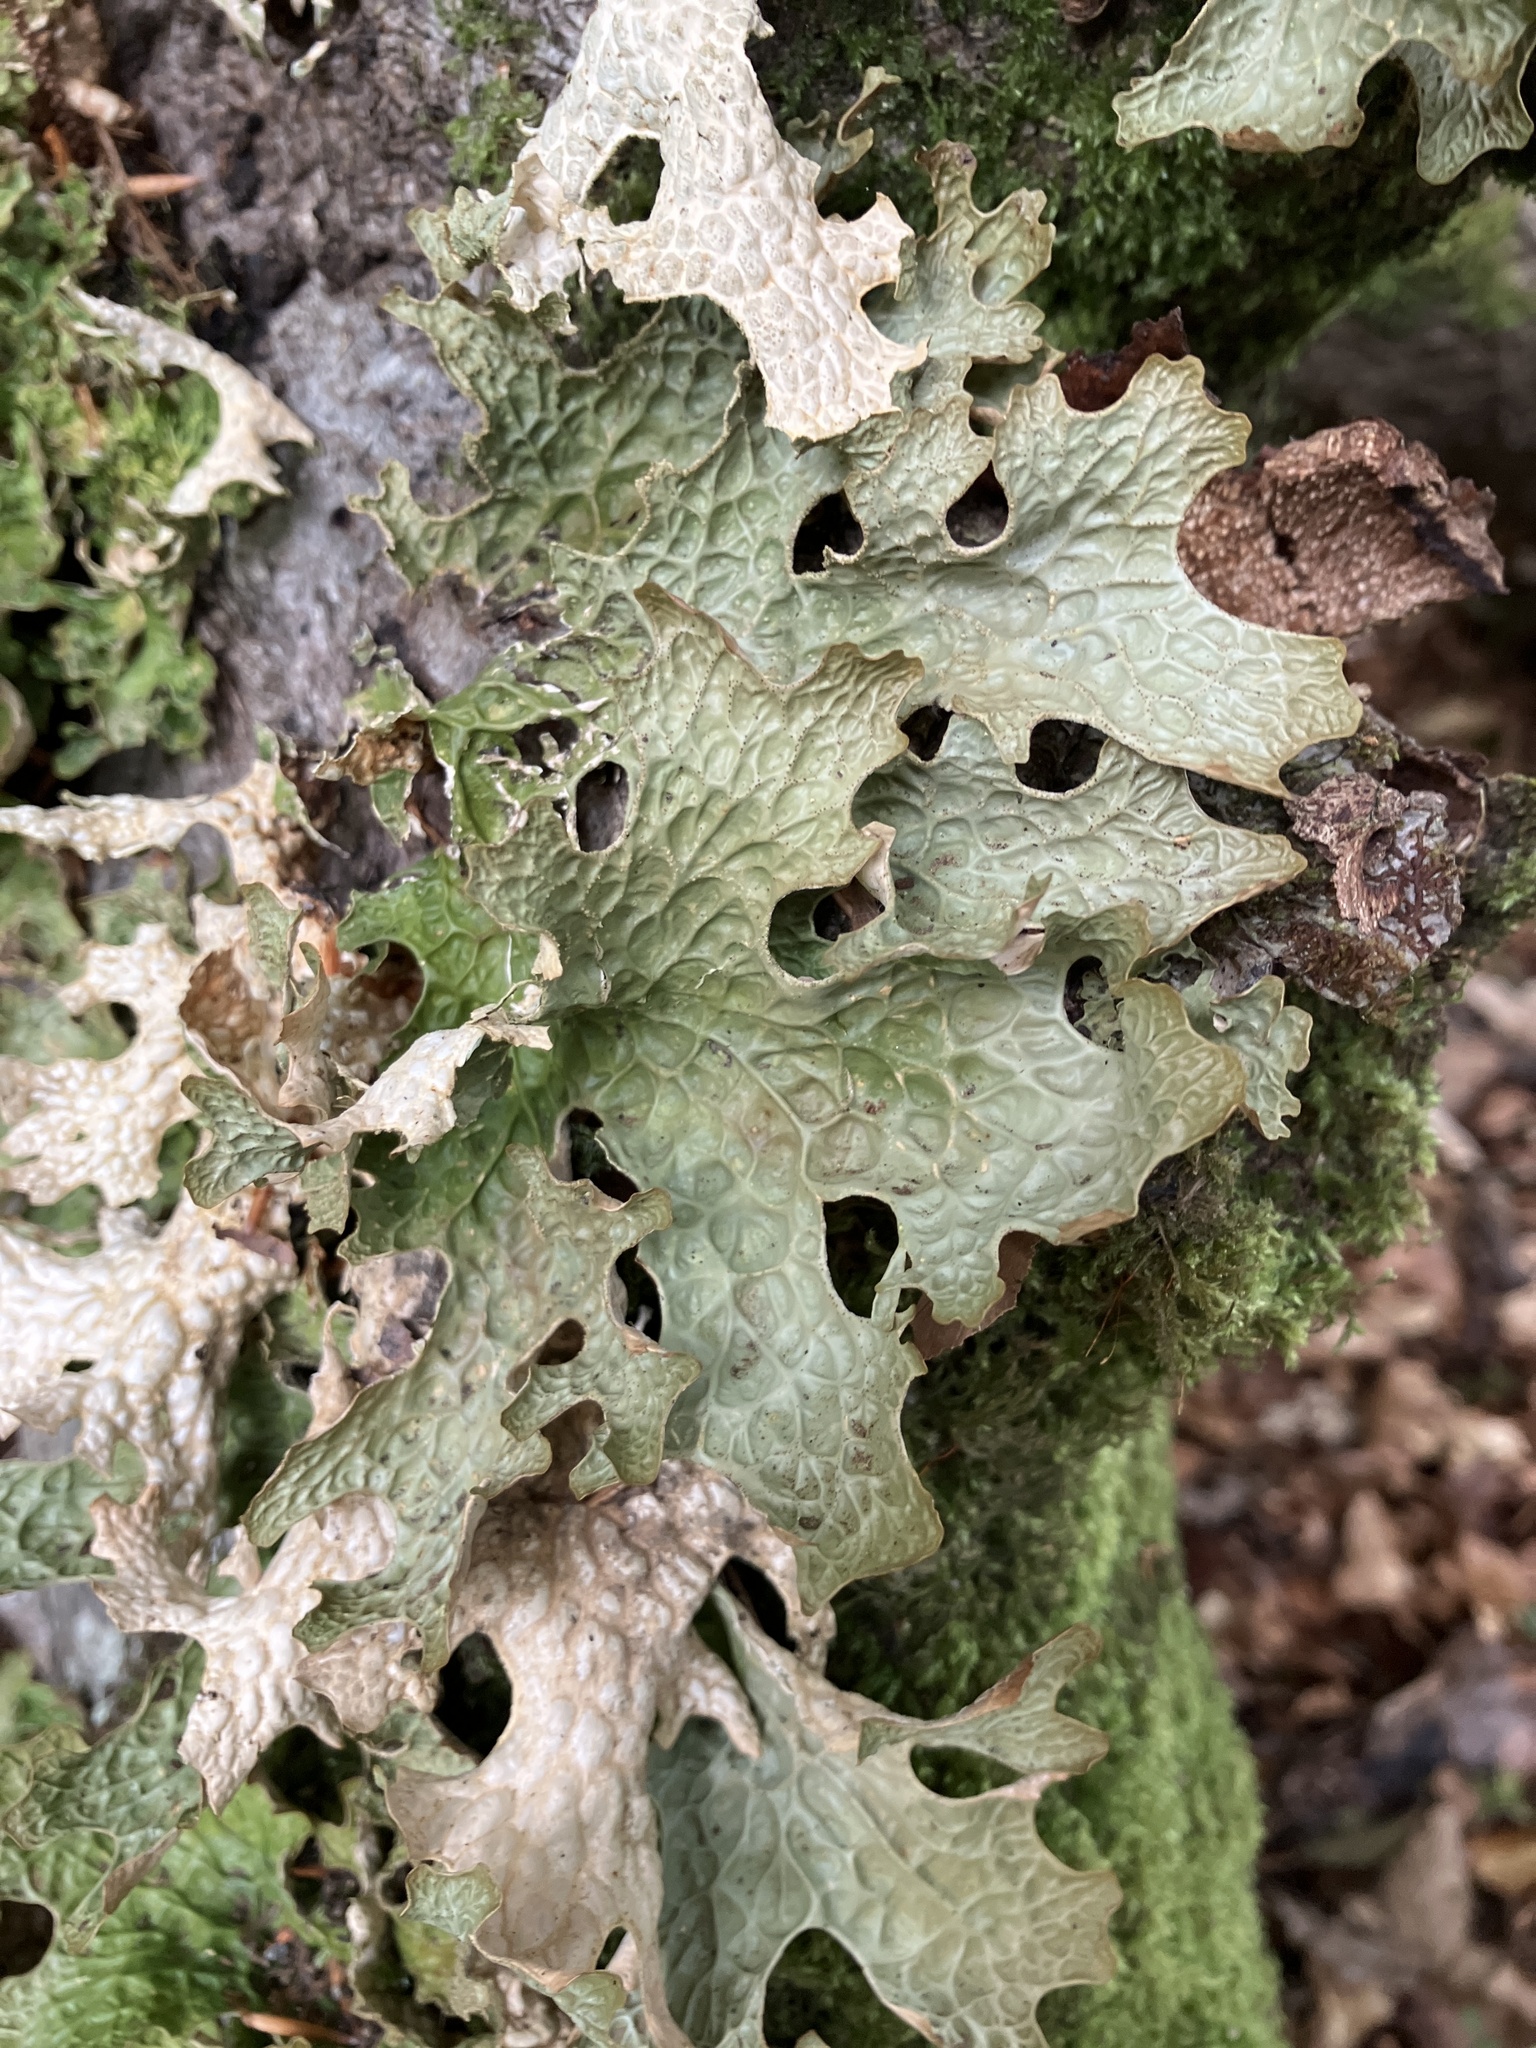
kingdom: Fungi
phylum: Ascomycota
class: Lecanoromycetes
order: Peltigerales
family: Lobariaceae
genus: Lobaria
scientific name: Lobaria pulmonaria
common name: Lungwort
